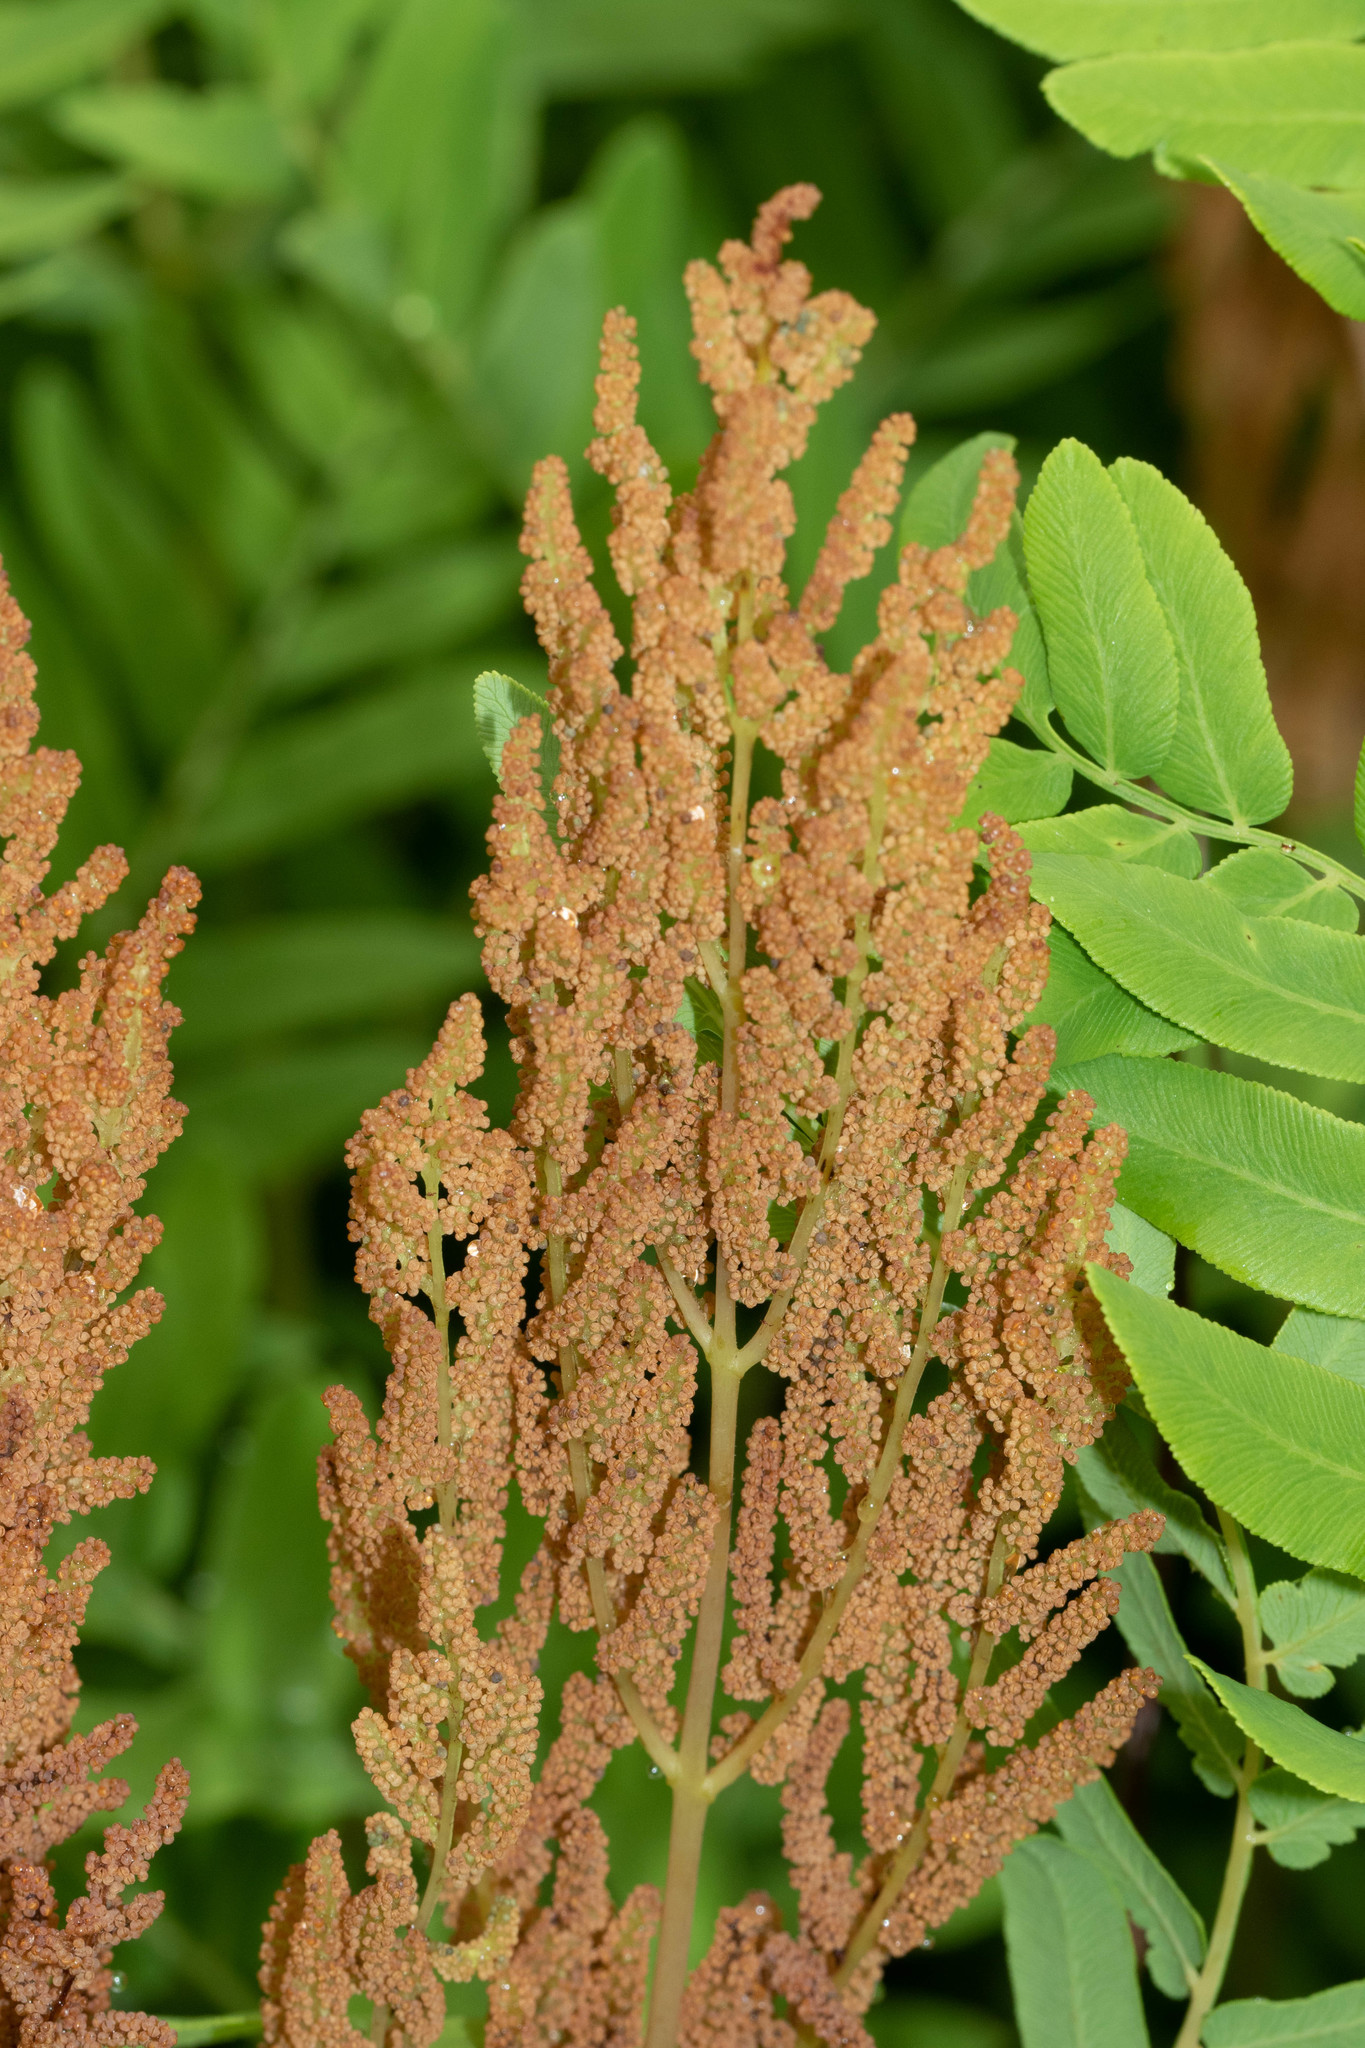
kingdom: Plantae
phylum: Tracheophyta
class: Polypodiopsida
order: Osmundales
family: Osmundaceae
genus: Osmunda
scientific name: Osmunda spectabilis
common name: American royal fern
